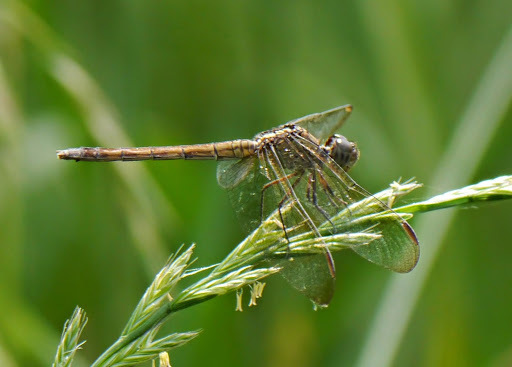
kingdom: Animalia
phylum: Arthropoda
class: Insecta
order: Odonata
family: Libellulidae
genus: Erythrodiplax
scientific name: Erythrodiplax umbrata
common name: Band-winged dragonlet
